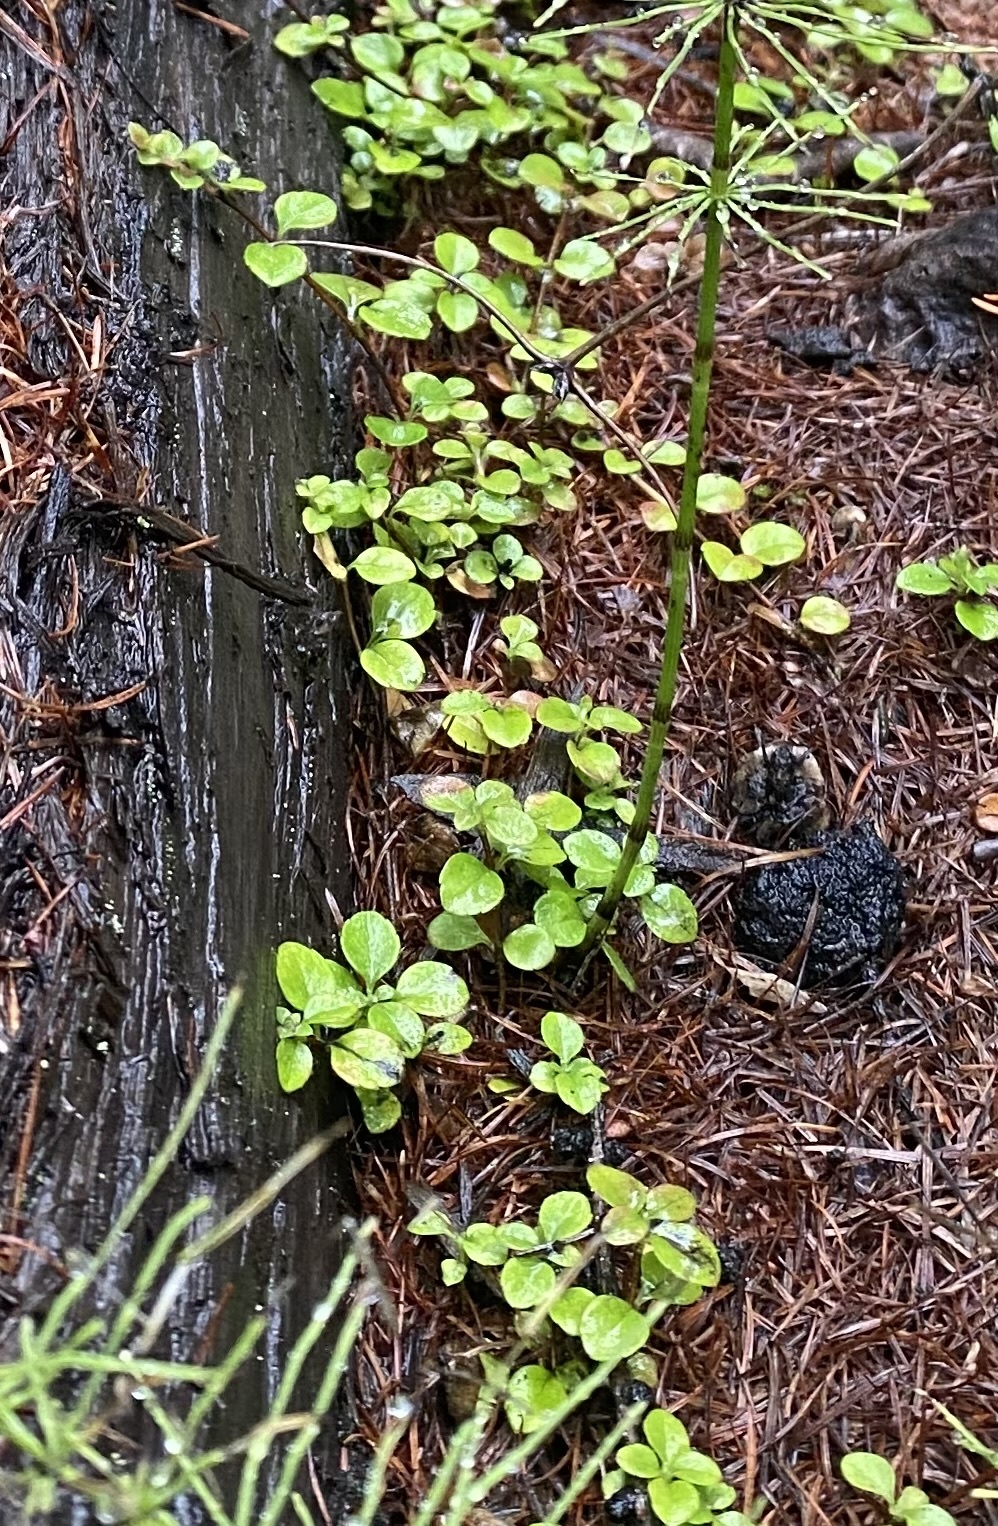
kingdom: Plantae
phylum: Tracheophyta
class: Magnoliopsida
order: Dipsacales
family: Caprifoliaceae
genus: Linnaea
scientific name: Linnaea borealis
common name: Twinflower
